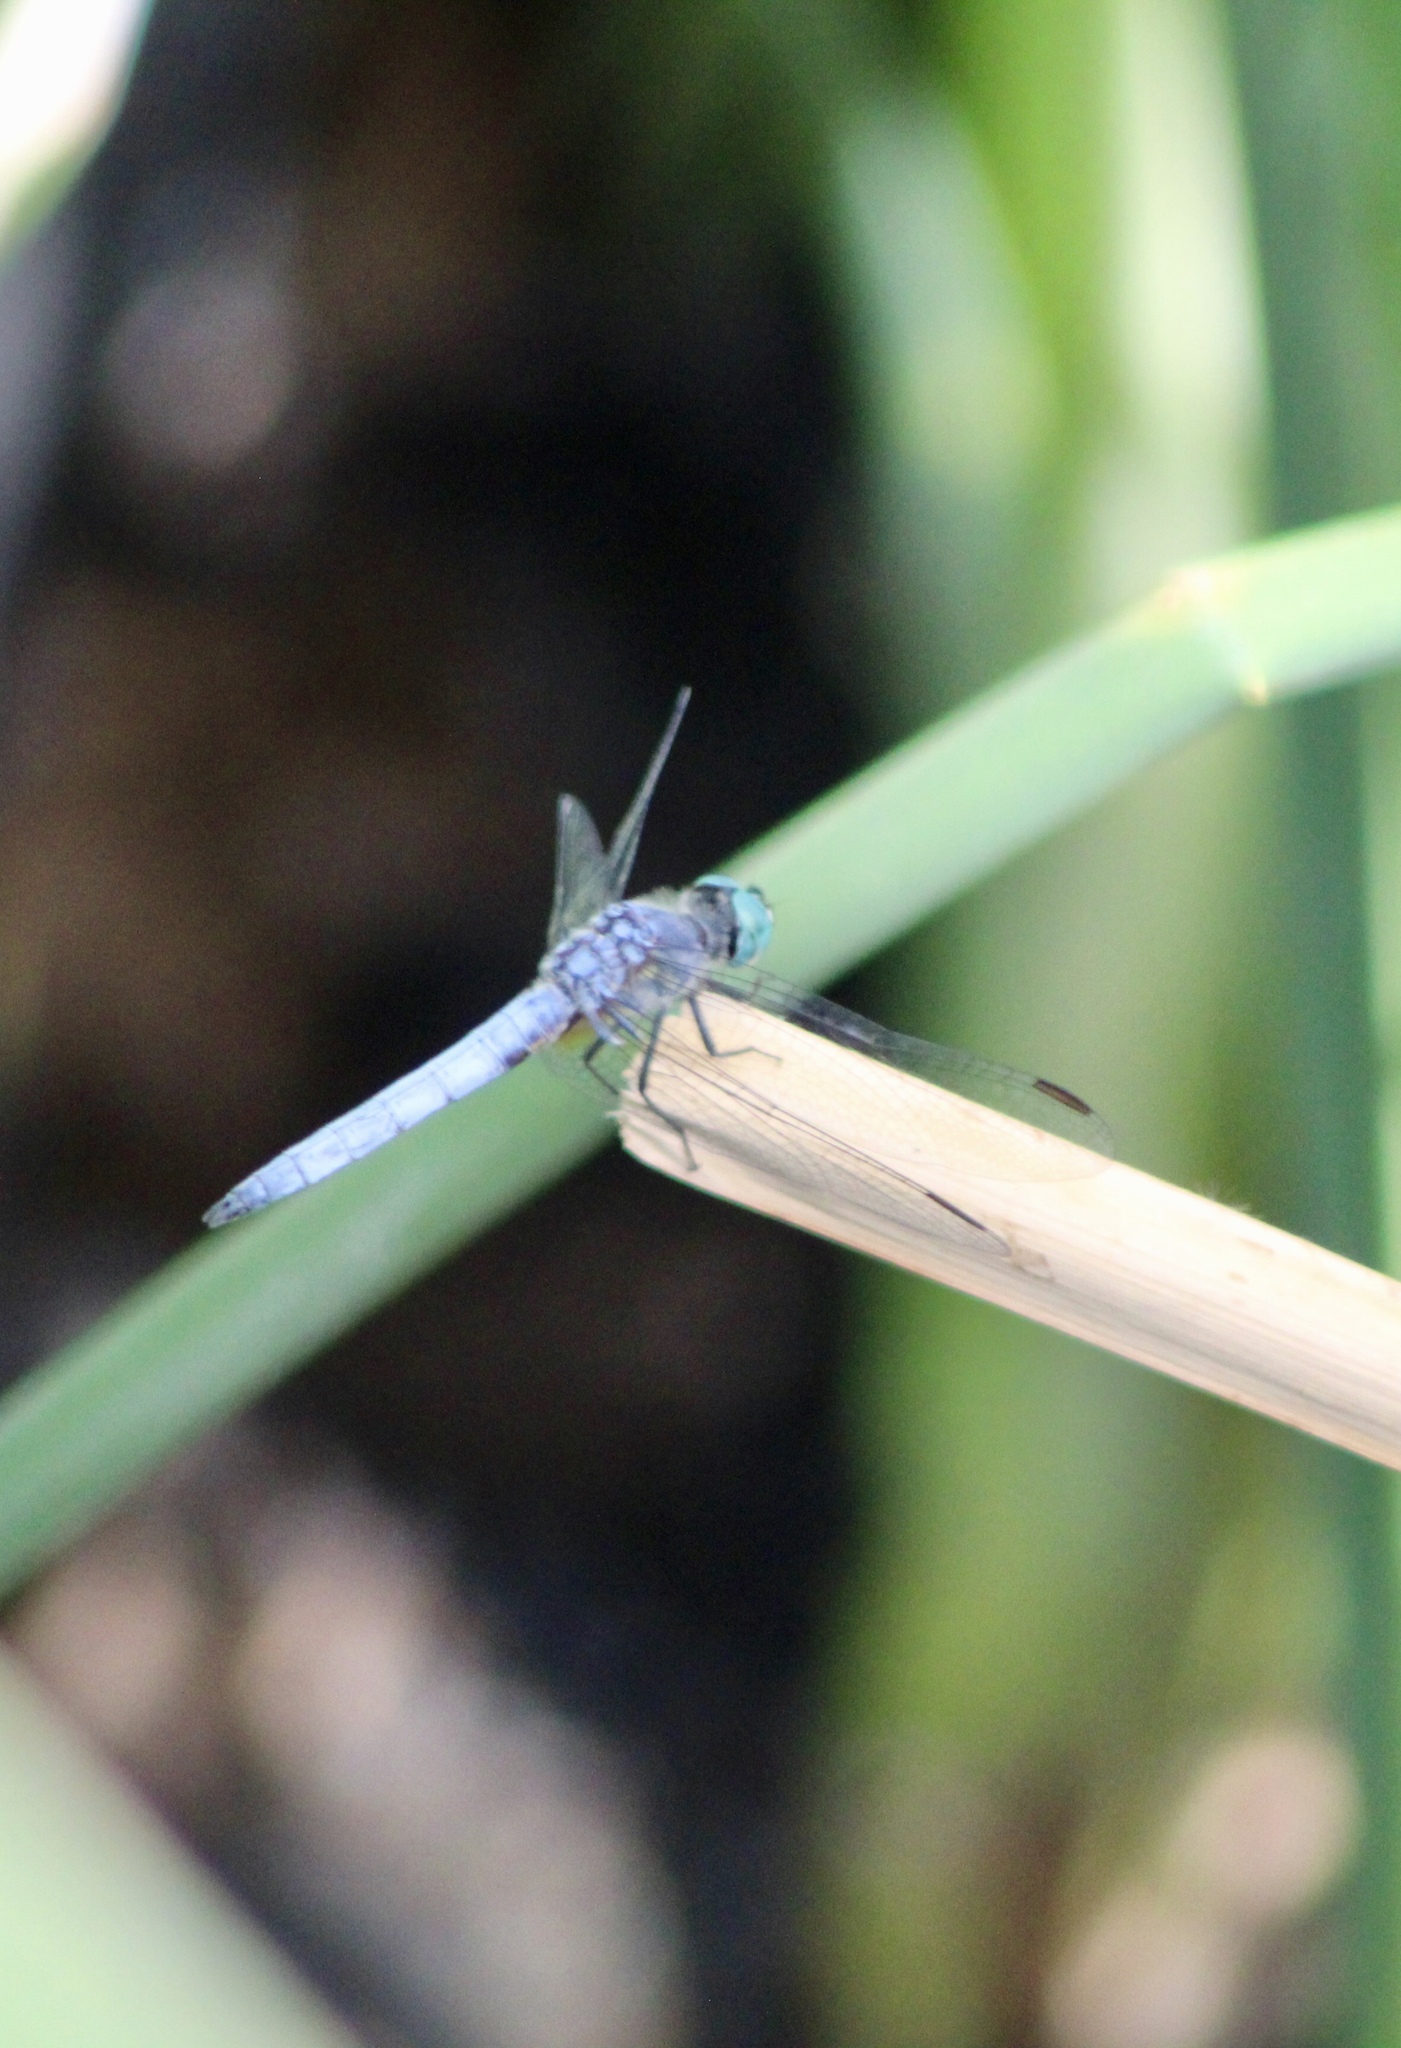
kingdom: Animalia
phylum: Arthropoda
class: Insecta
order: Odonata
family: Libellulidae
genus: Pachydiplax
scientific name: Pachydiplax longipennis
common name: Blue dasher
